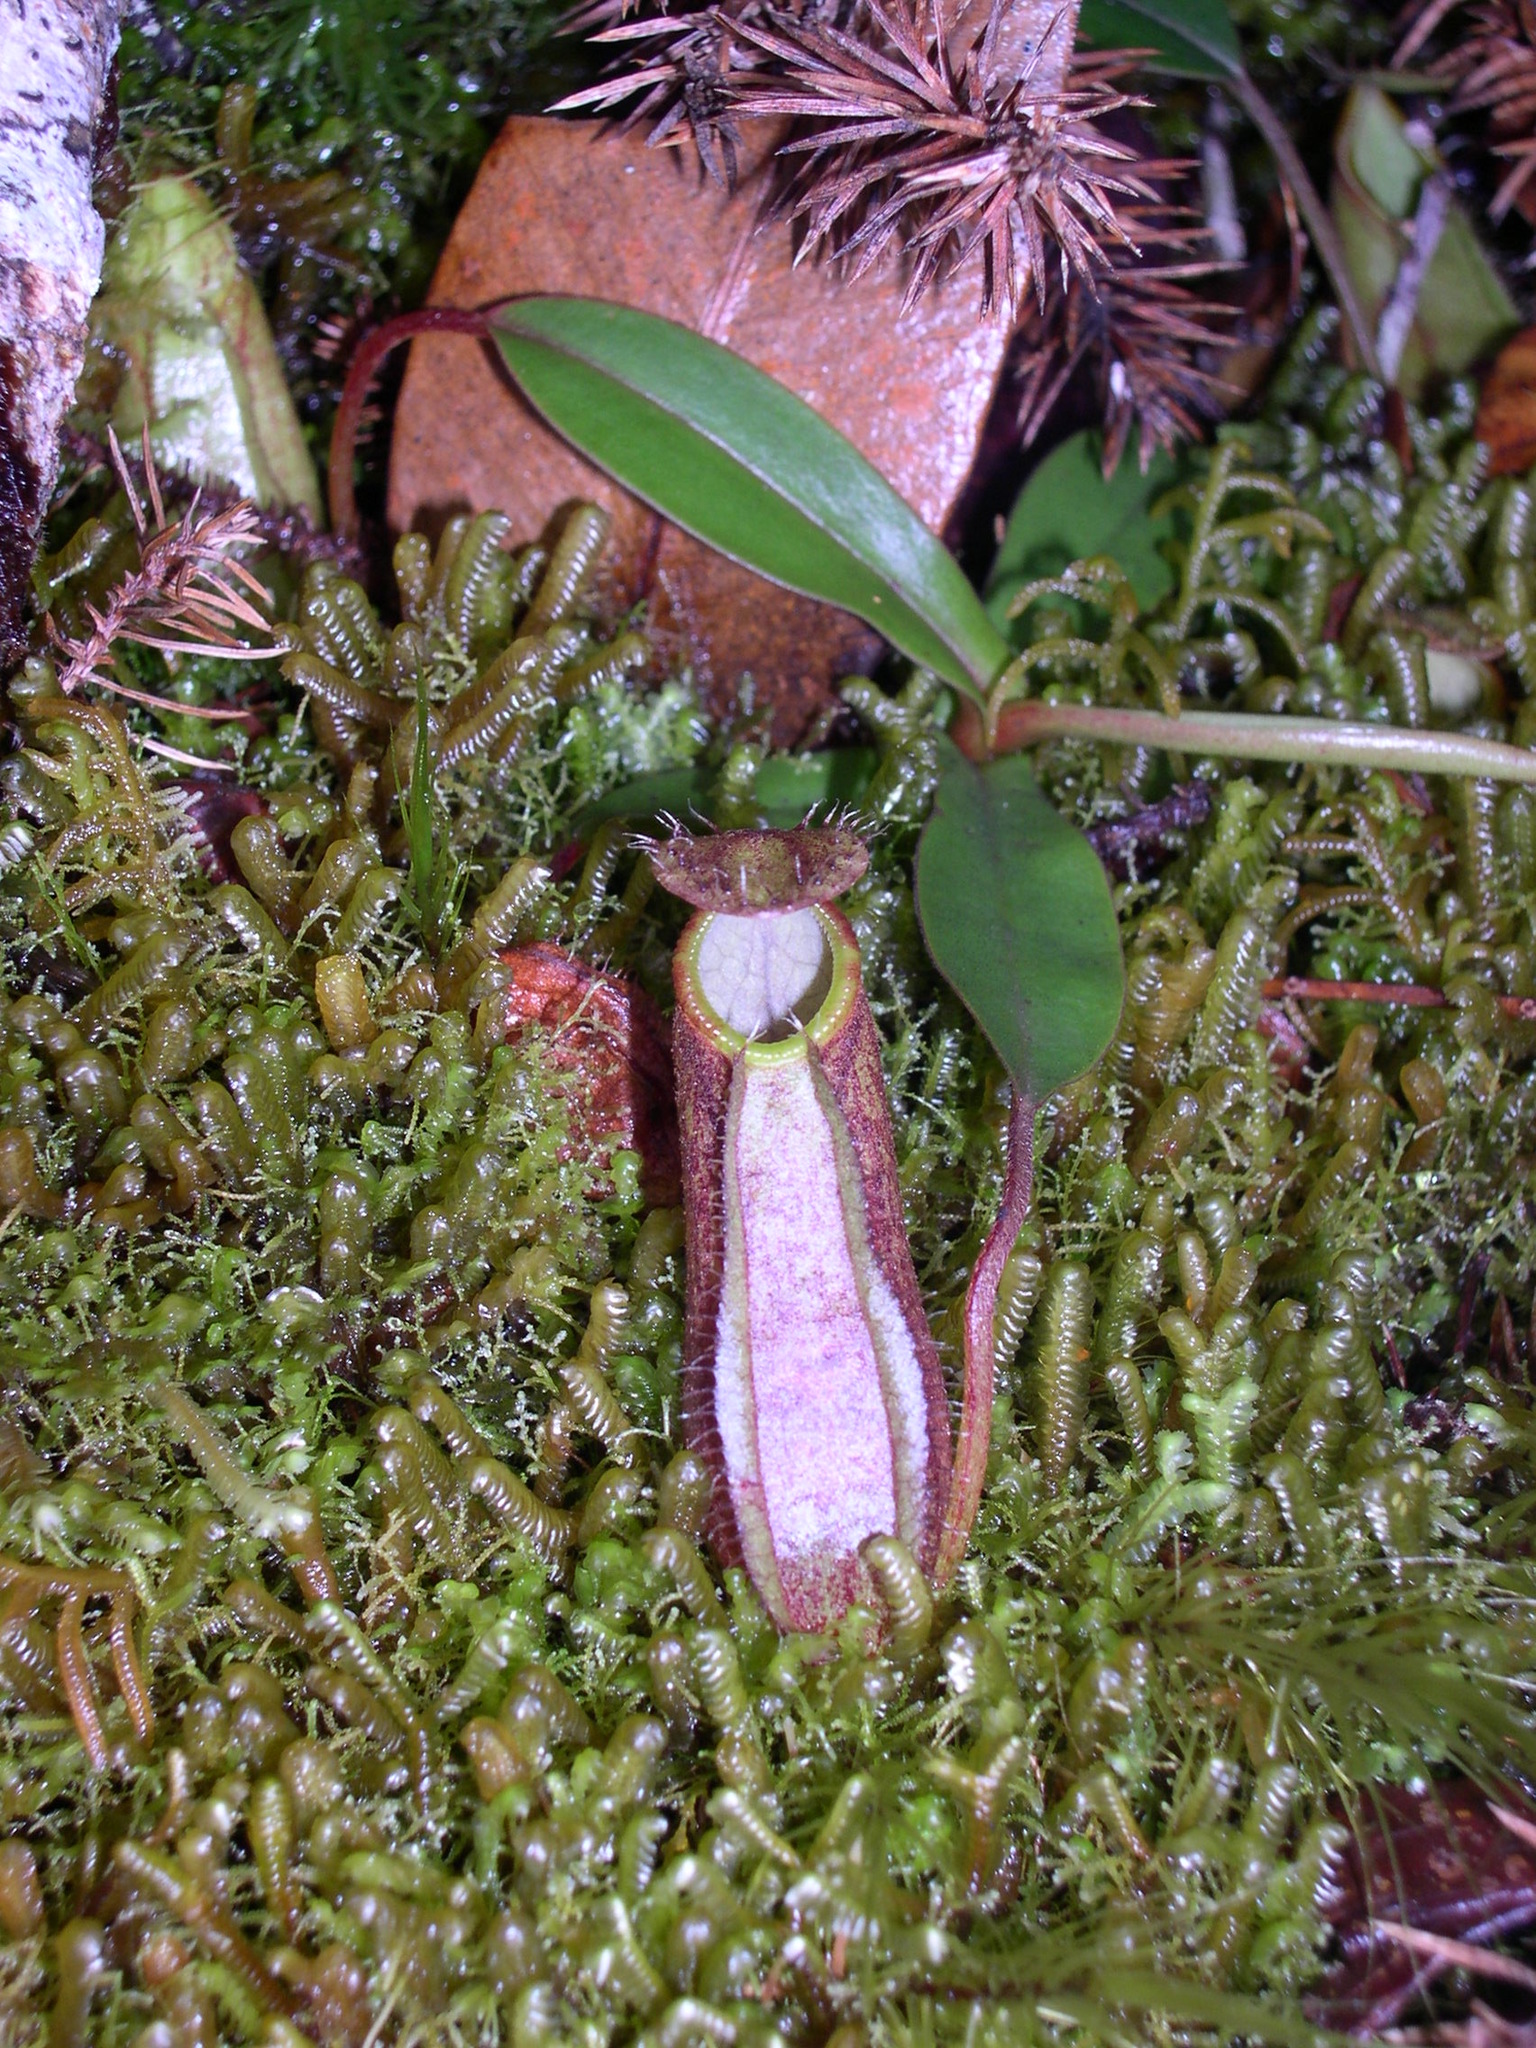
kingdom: Plantae
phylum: Tracheophyta
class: Magnoliopsida
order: Caryophyllales
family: Nepenthaceae
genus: Nepenthes
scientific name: Nepenthes tentaculata
